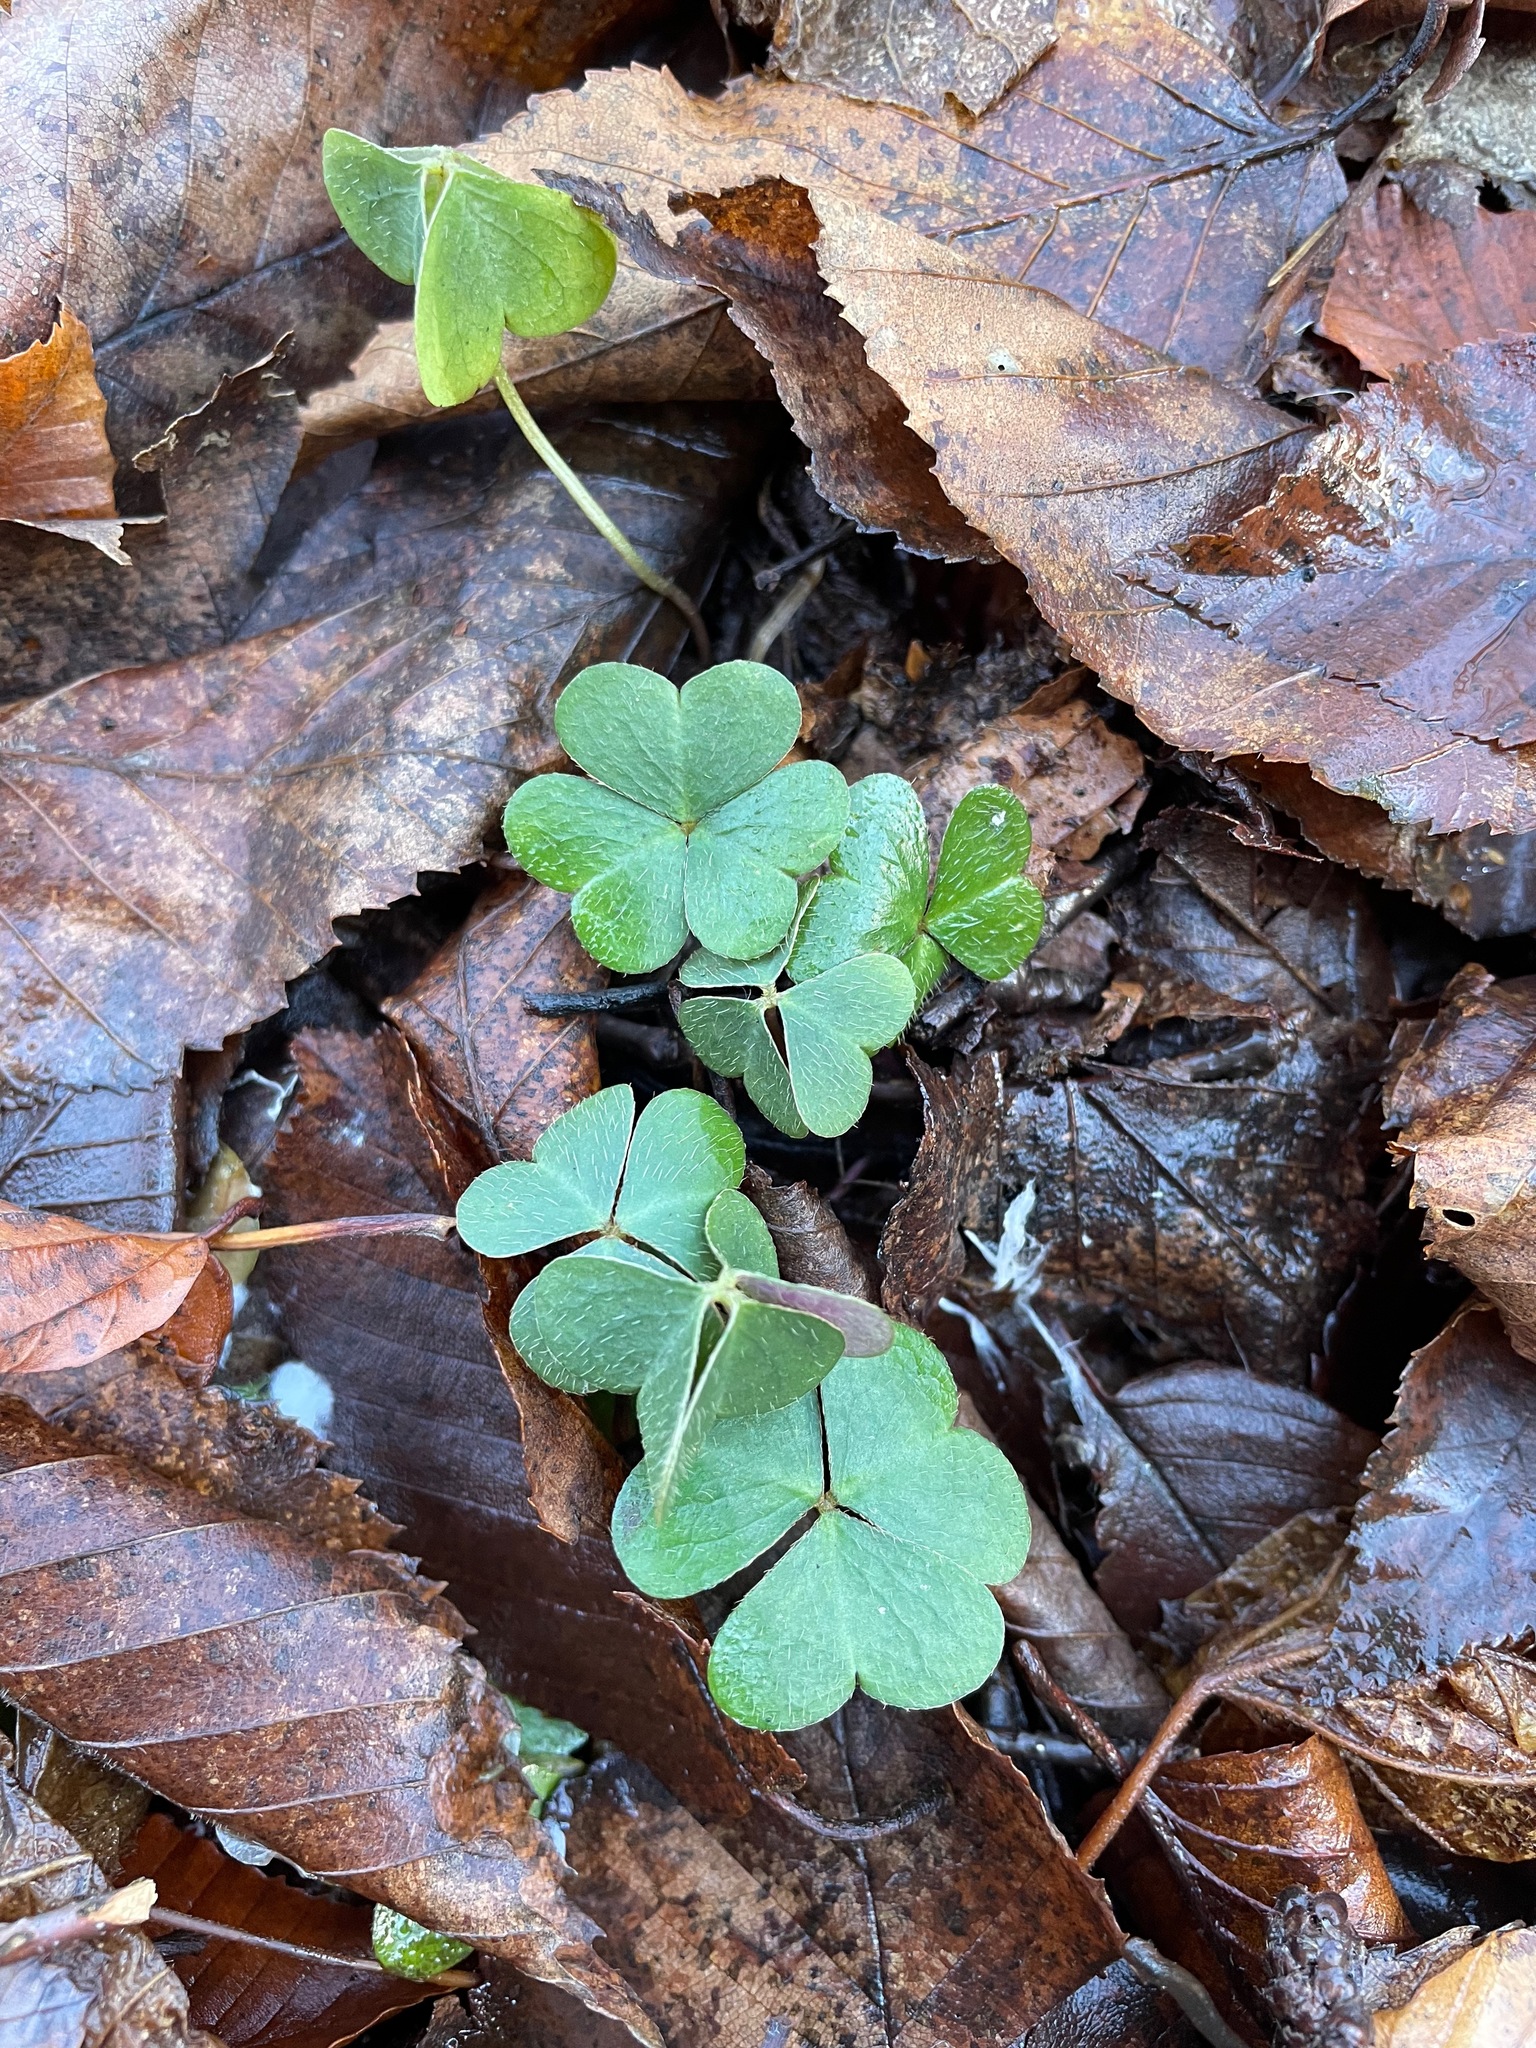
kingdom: Plantae
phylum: Tracheophyta
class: Magnoliopsida
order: Oxalidales
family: Oxalidaceae
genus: Oxalis
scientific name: Oxalis montana
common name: American wood-sorrel
